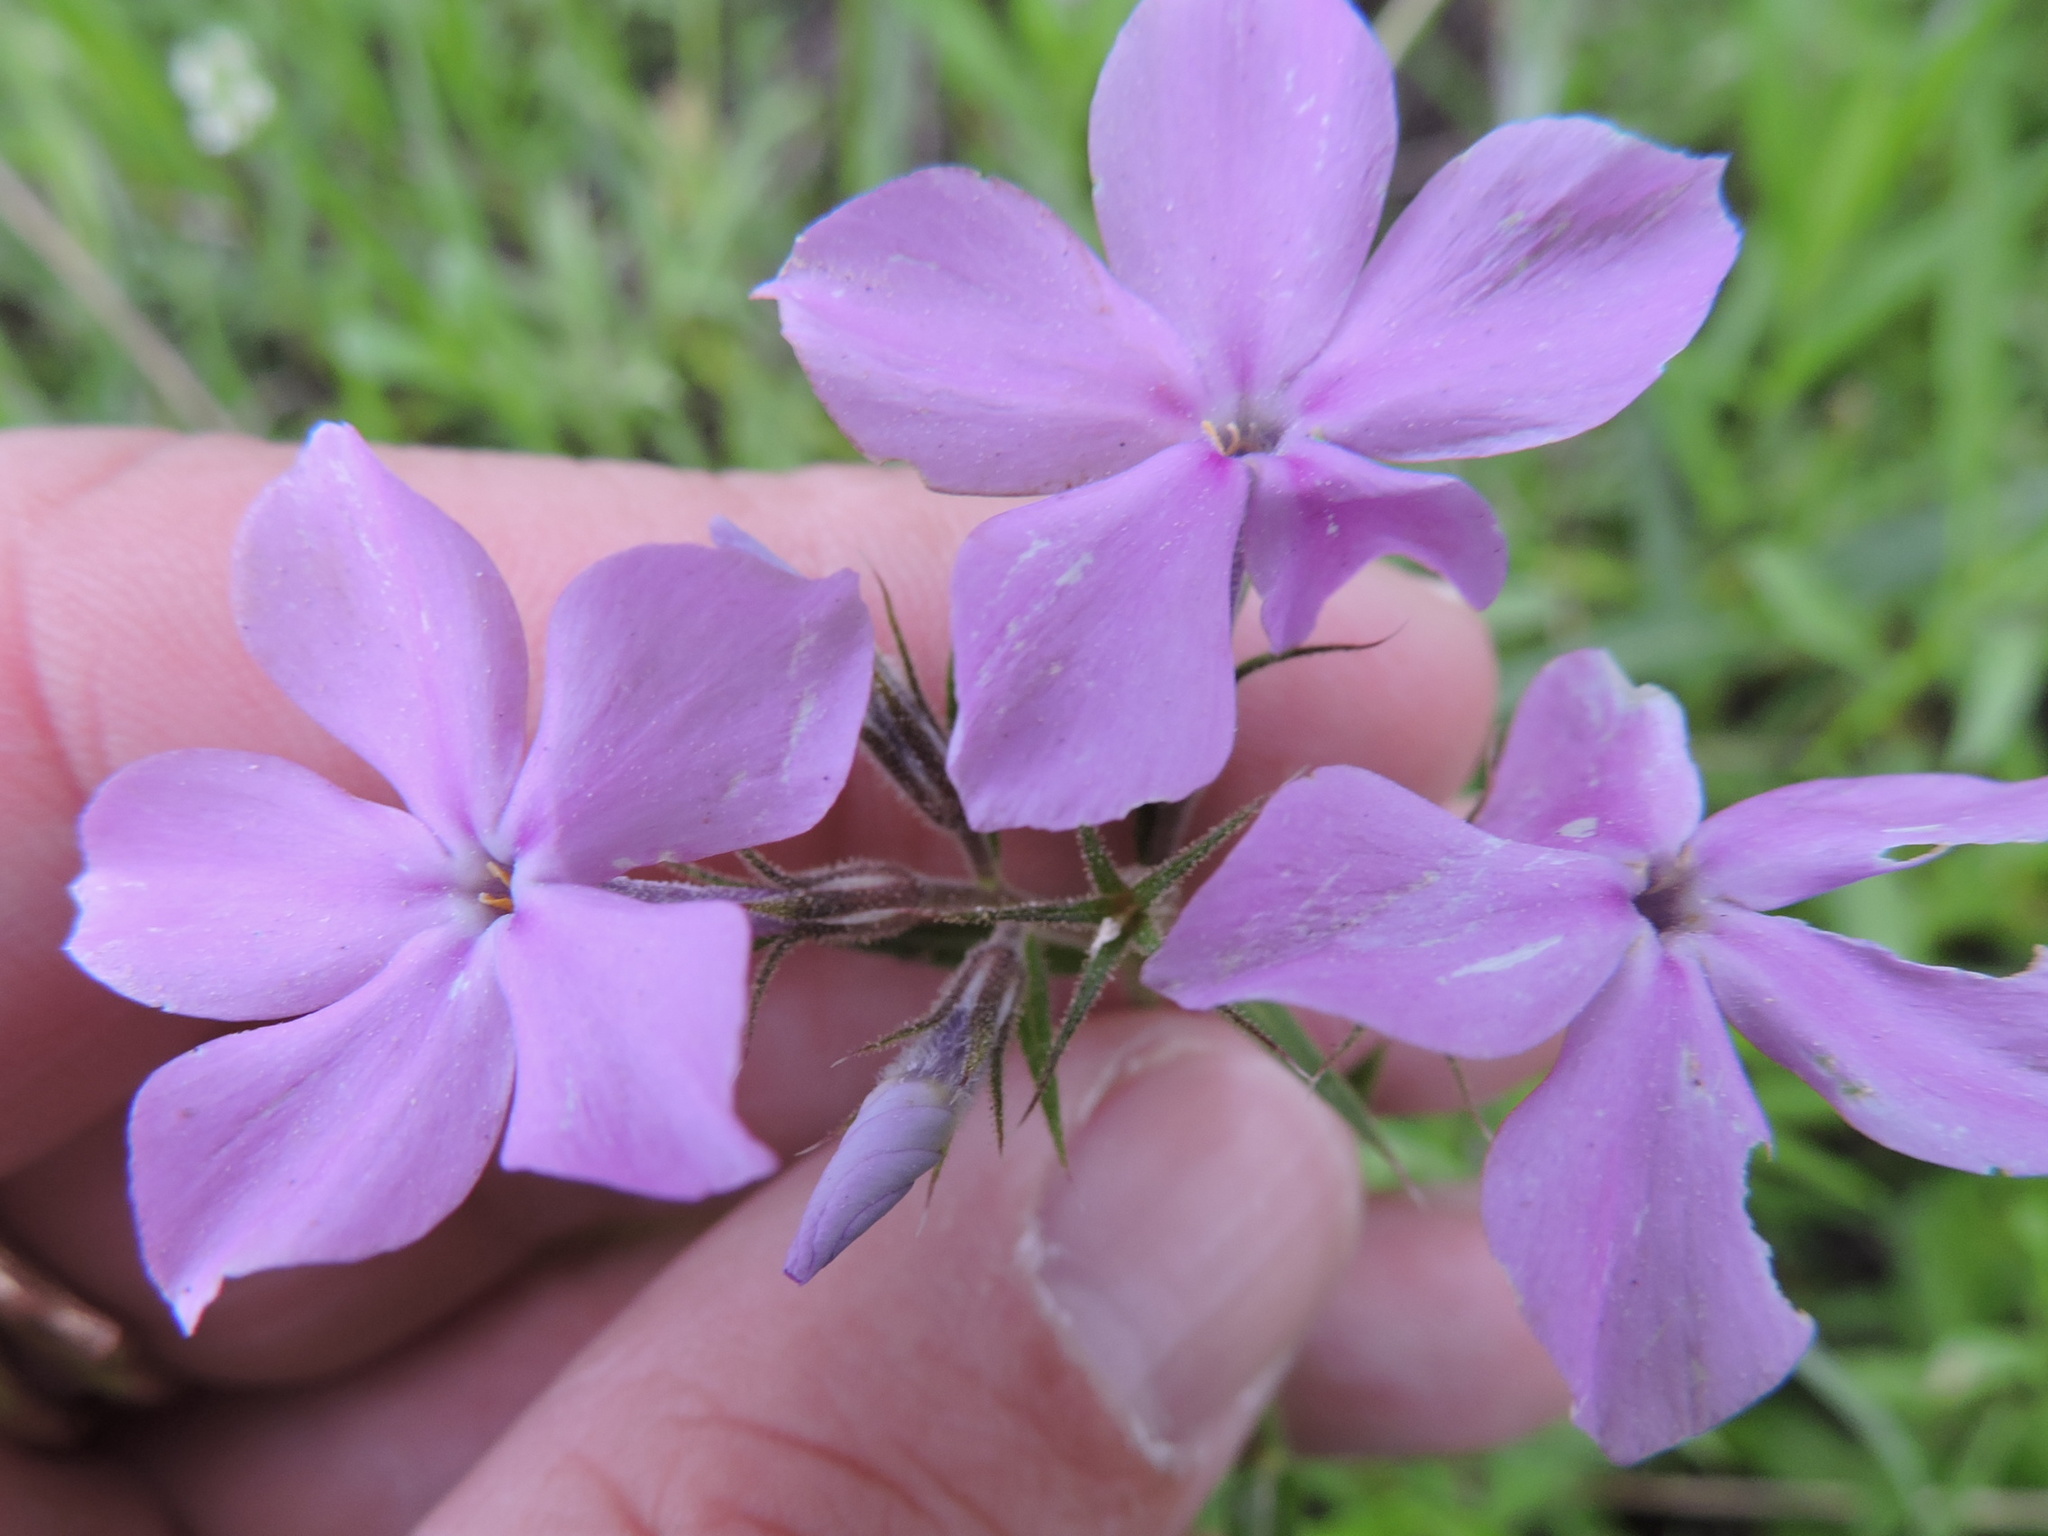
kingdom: Plantae
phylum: Tracheophyta
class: Magnoliopsida
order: Ericales
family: Polemoniaceae
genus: Phlox
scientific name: Phlox pilosa
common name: Prairie phlox
